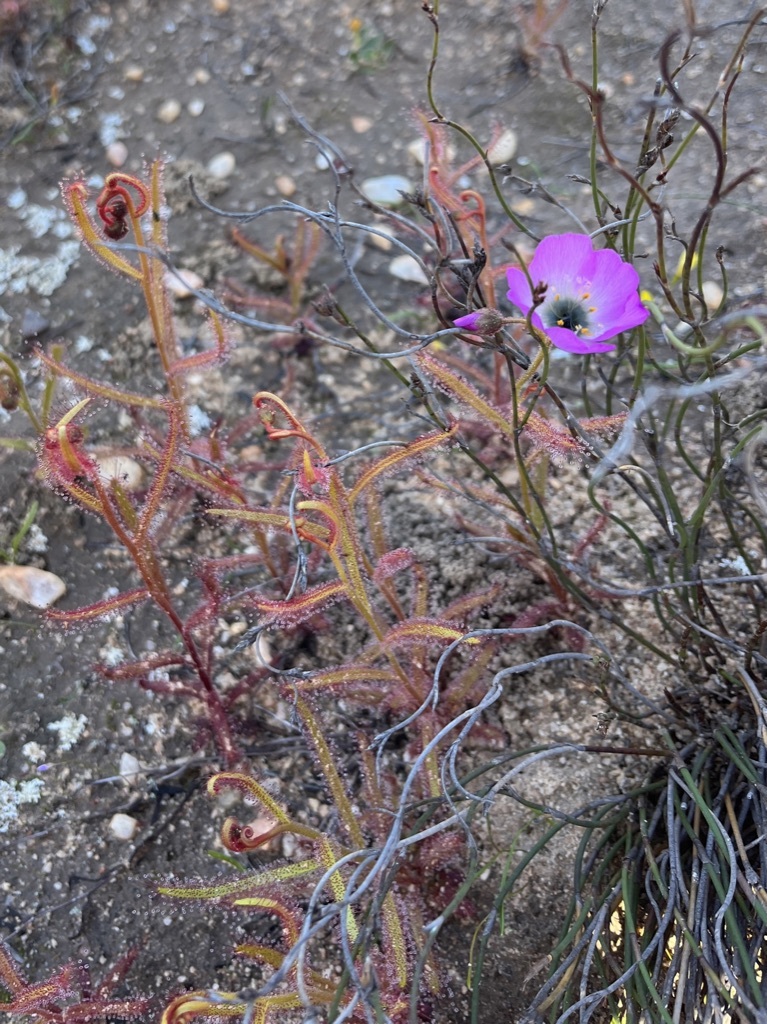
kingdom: Plantae
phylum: Tracheophyta
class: Magnoliopsida
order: Caryophyllales
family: Droseraceae
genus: Drosera
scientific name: Drosera cistiflora
